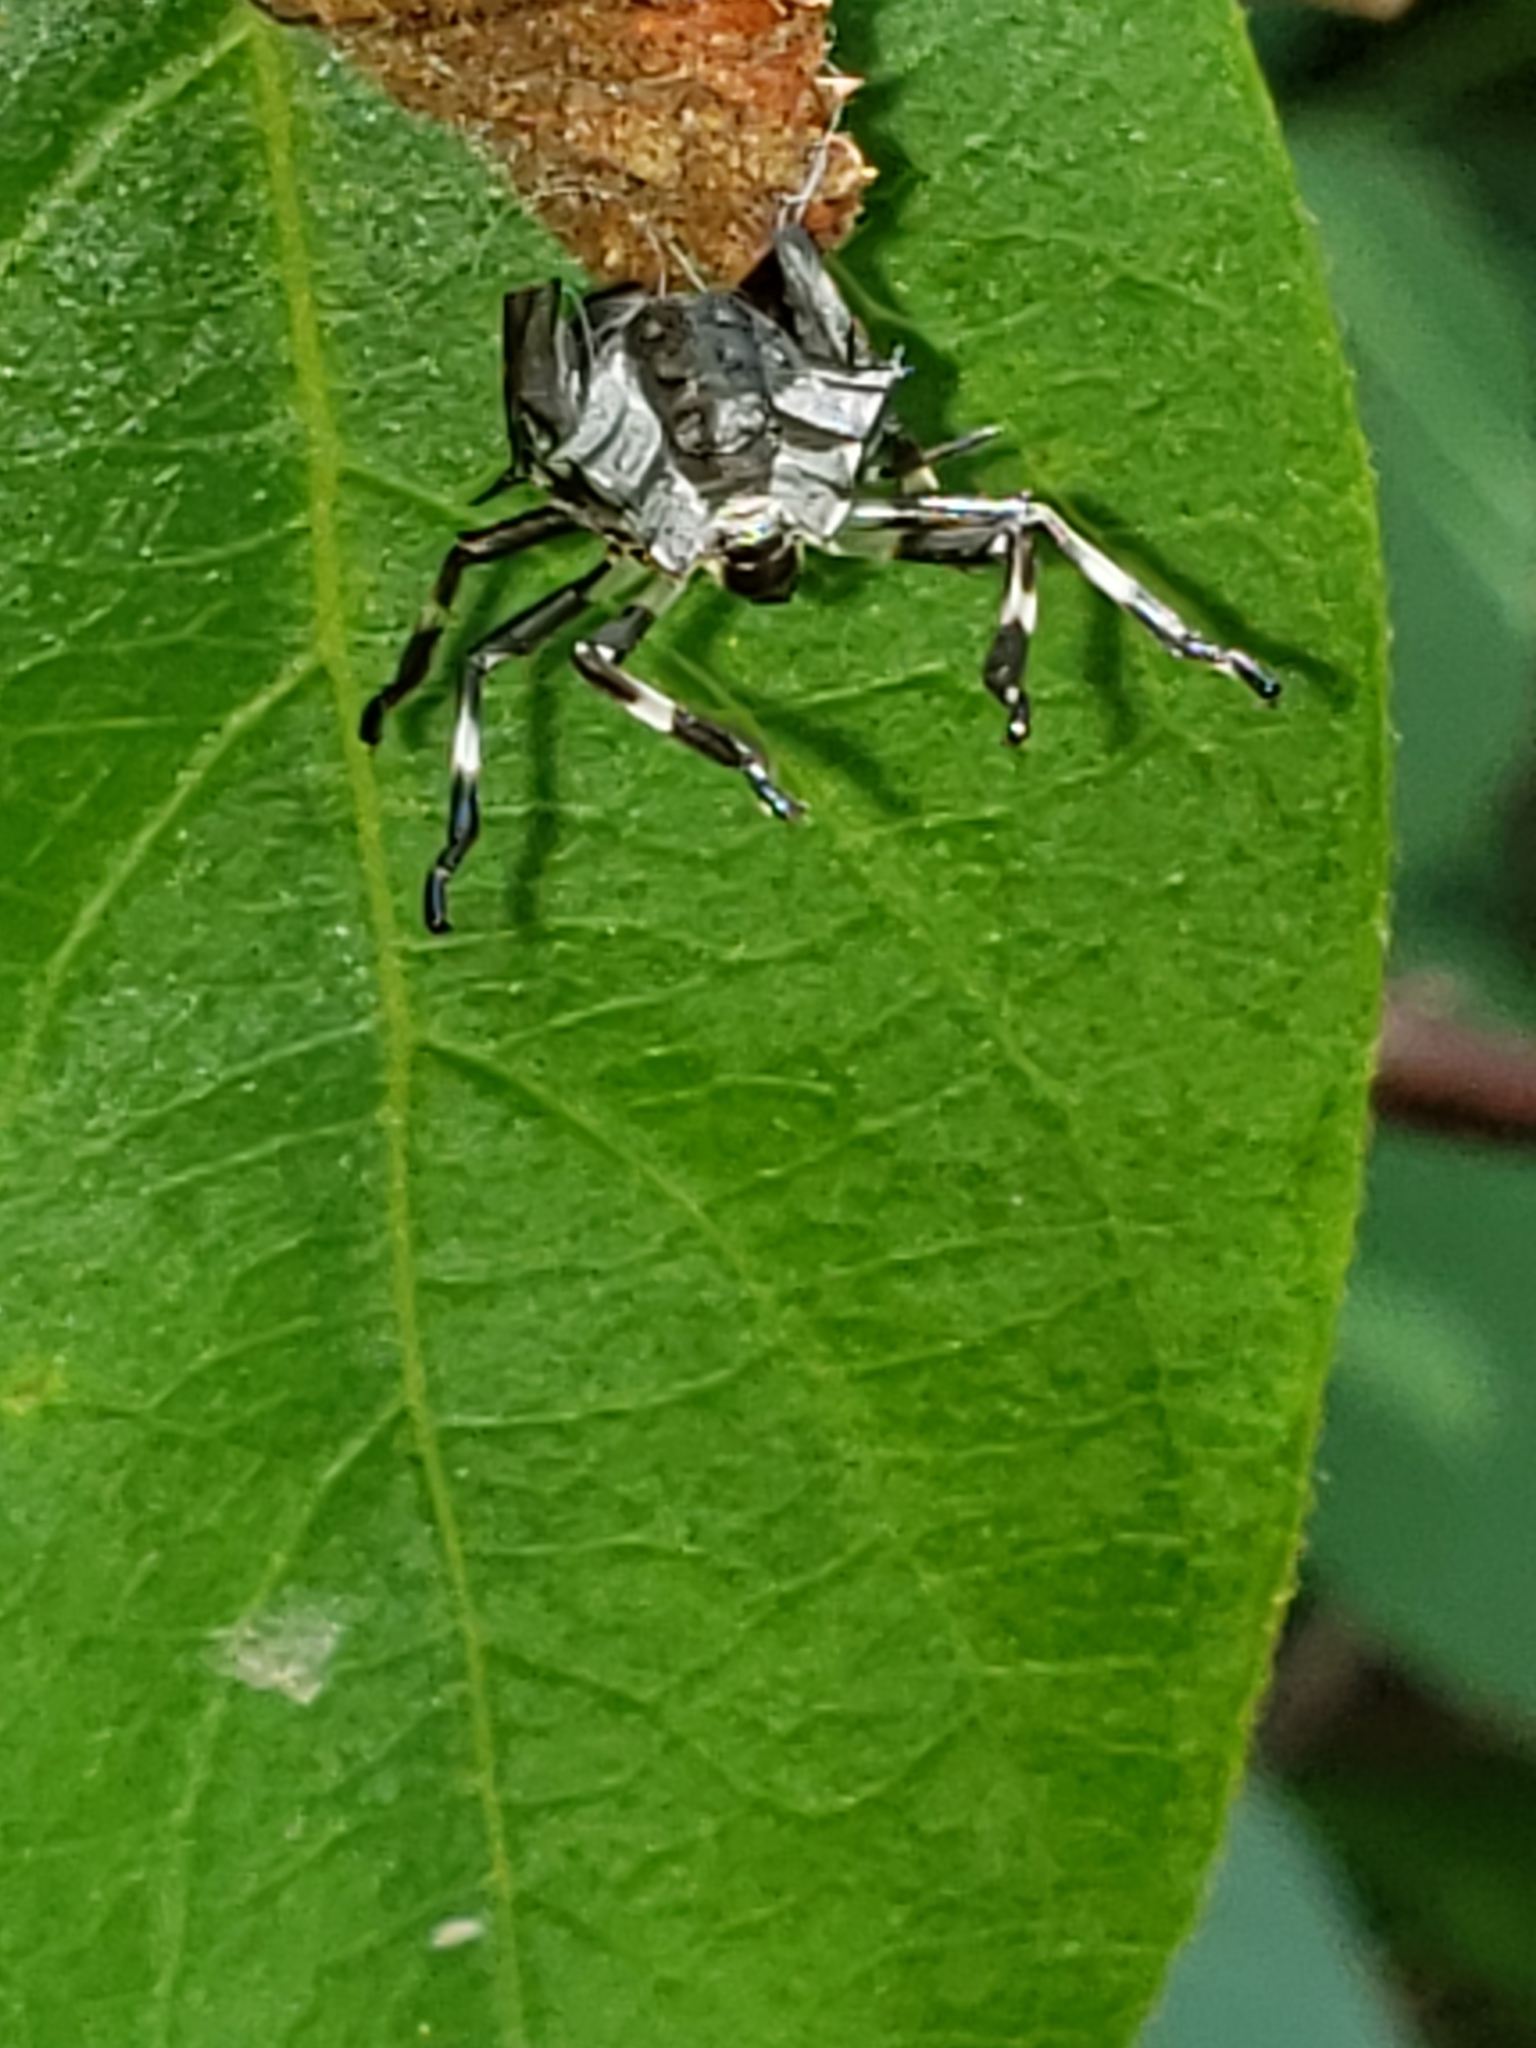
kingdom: Animalia
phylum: Arthropoda
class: Insecta
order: Hemiptera
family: Pentatomidae
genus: Halyomorpha
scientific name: Halyomorpha halys
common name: Brown marmorated stink bug
